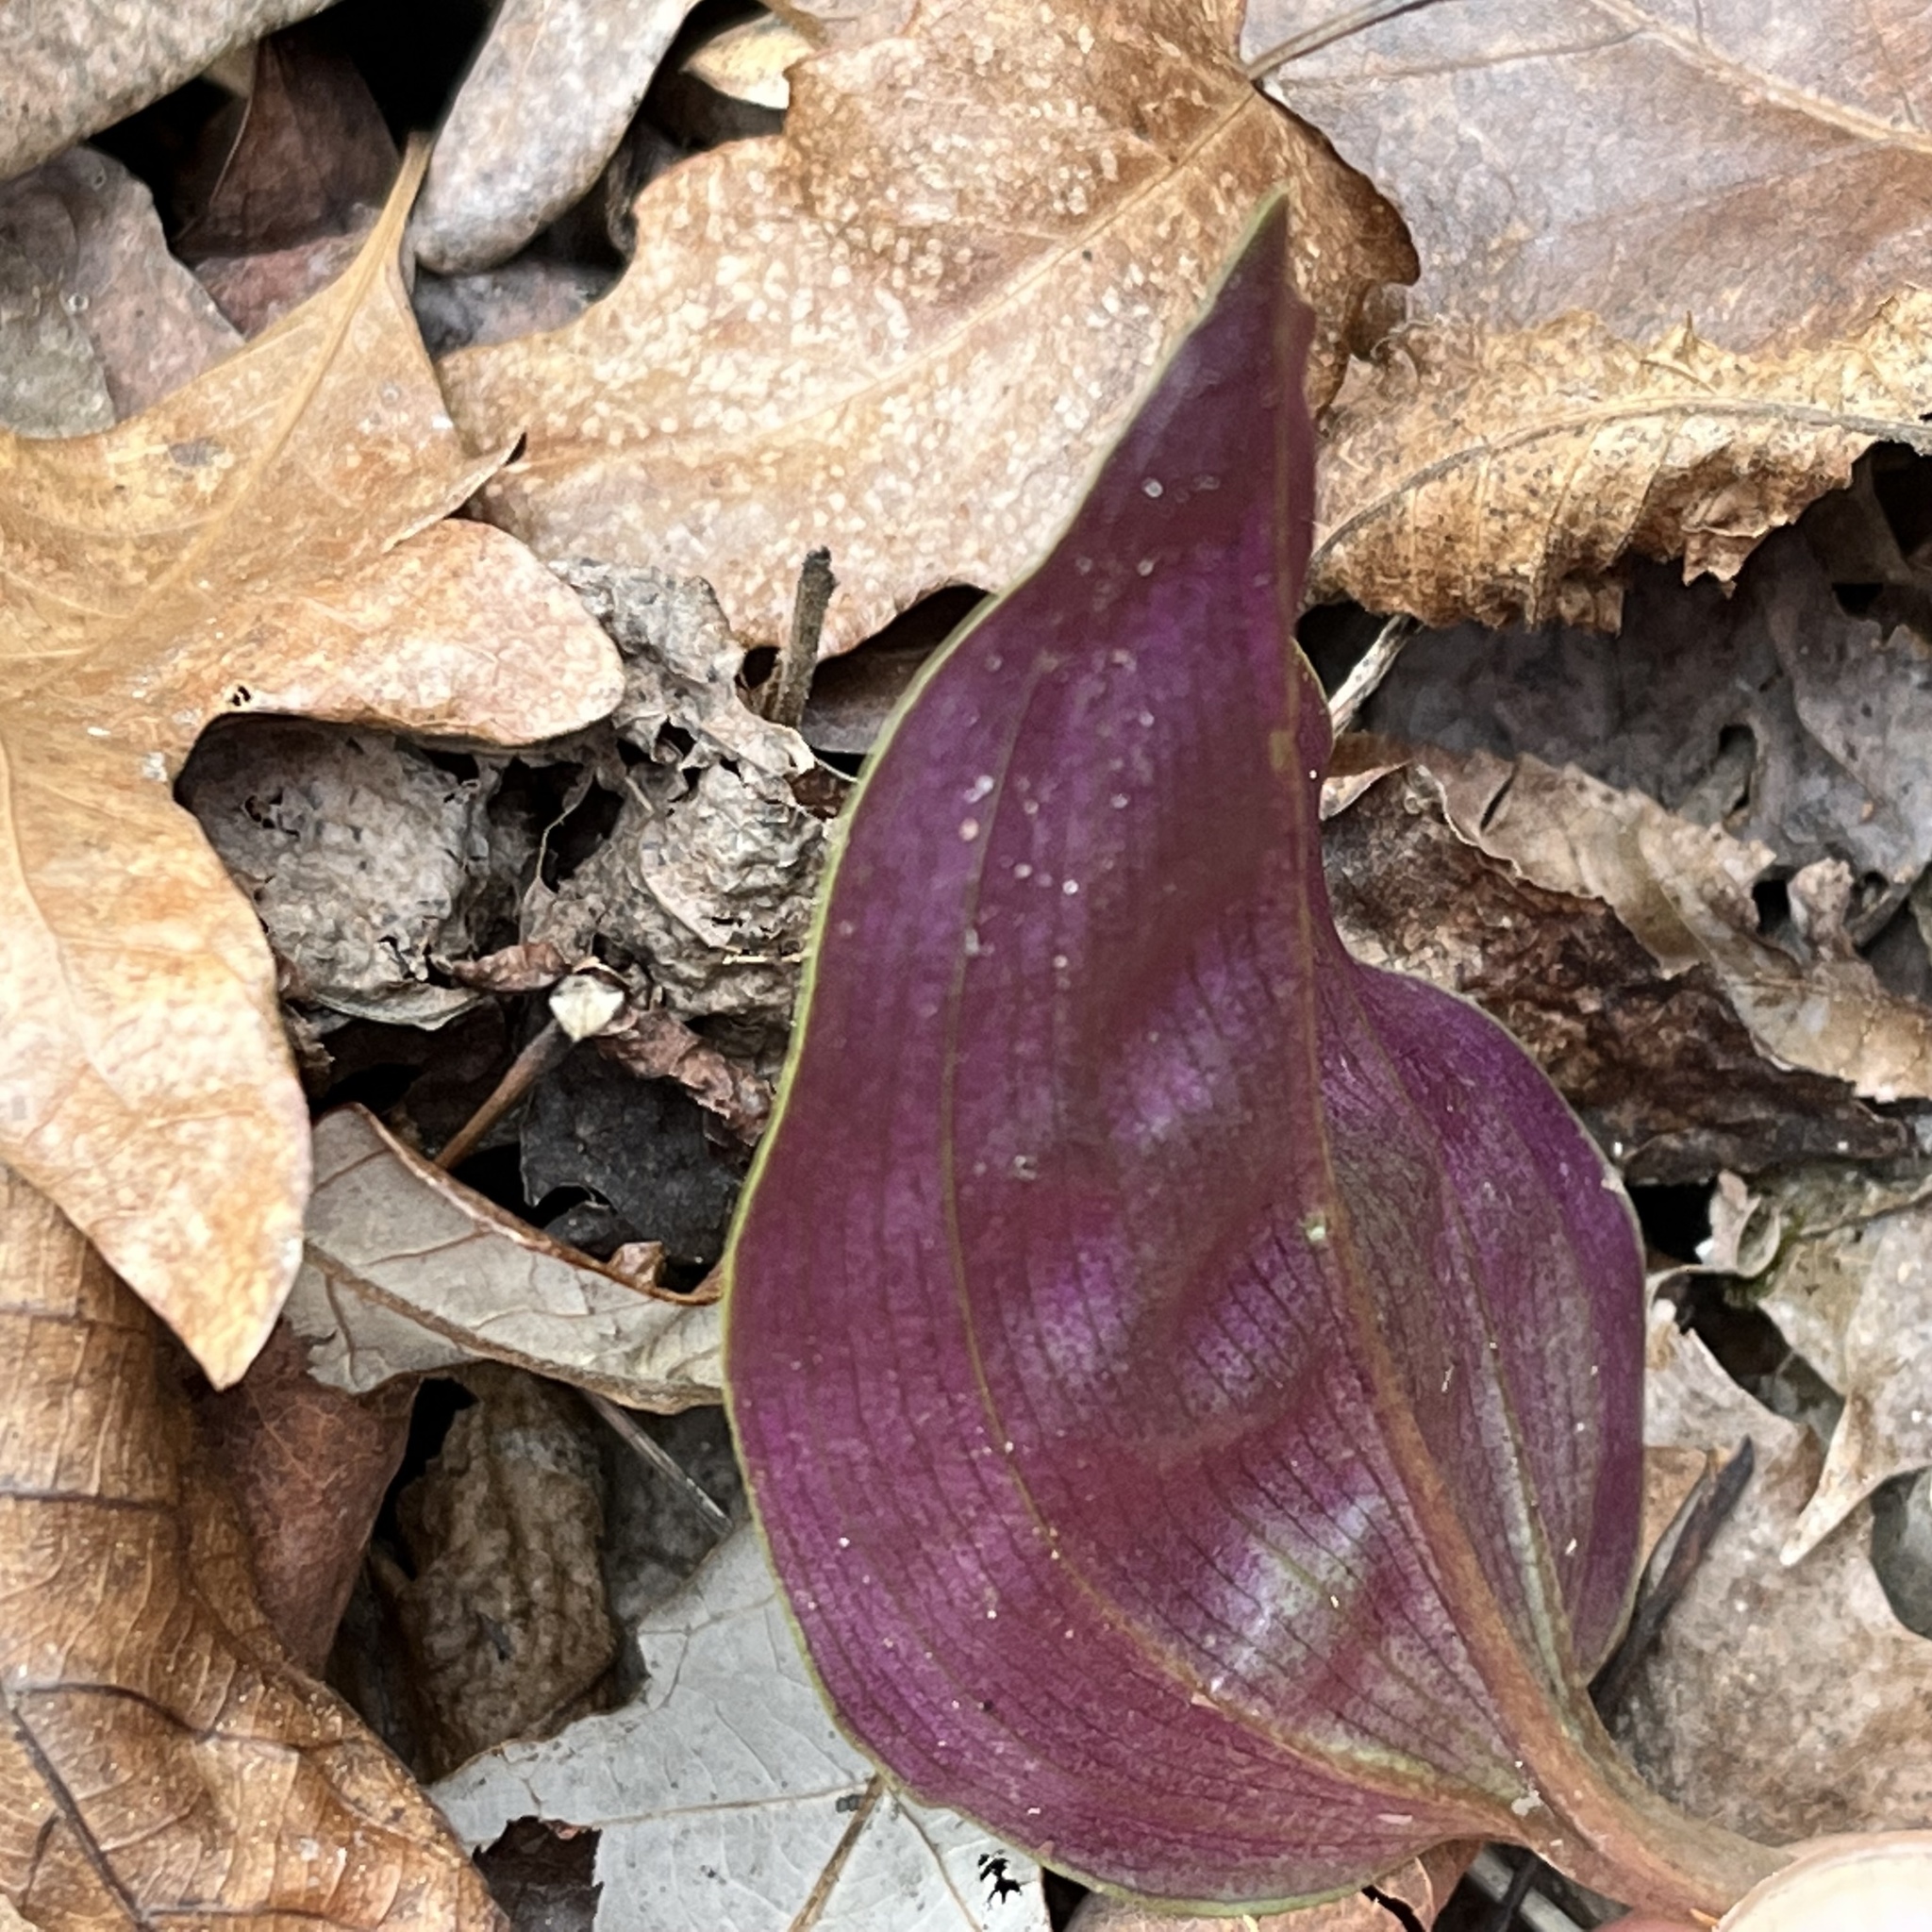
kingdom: Plantae
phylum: Tracheophyta
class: Liliopsida
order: Asparagales
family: Orchidaceae
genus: Tipularia
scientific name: Tipularia discolor
